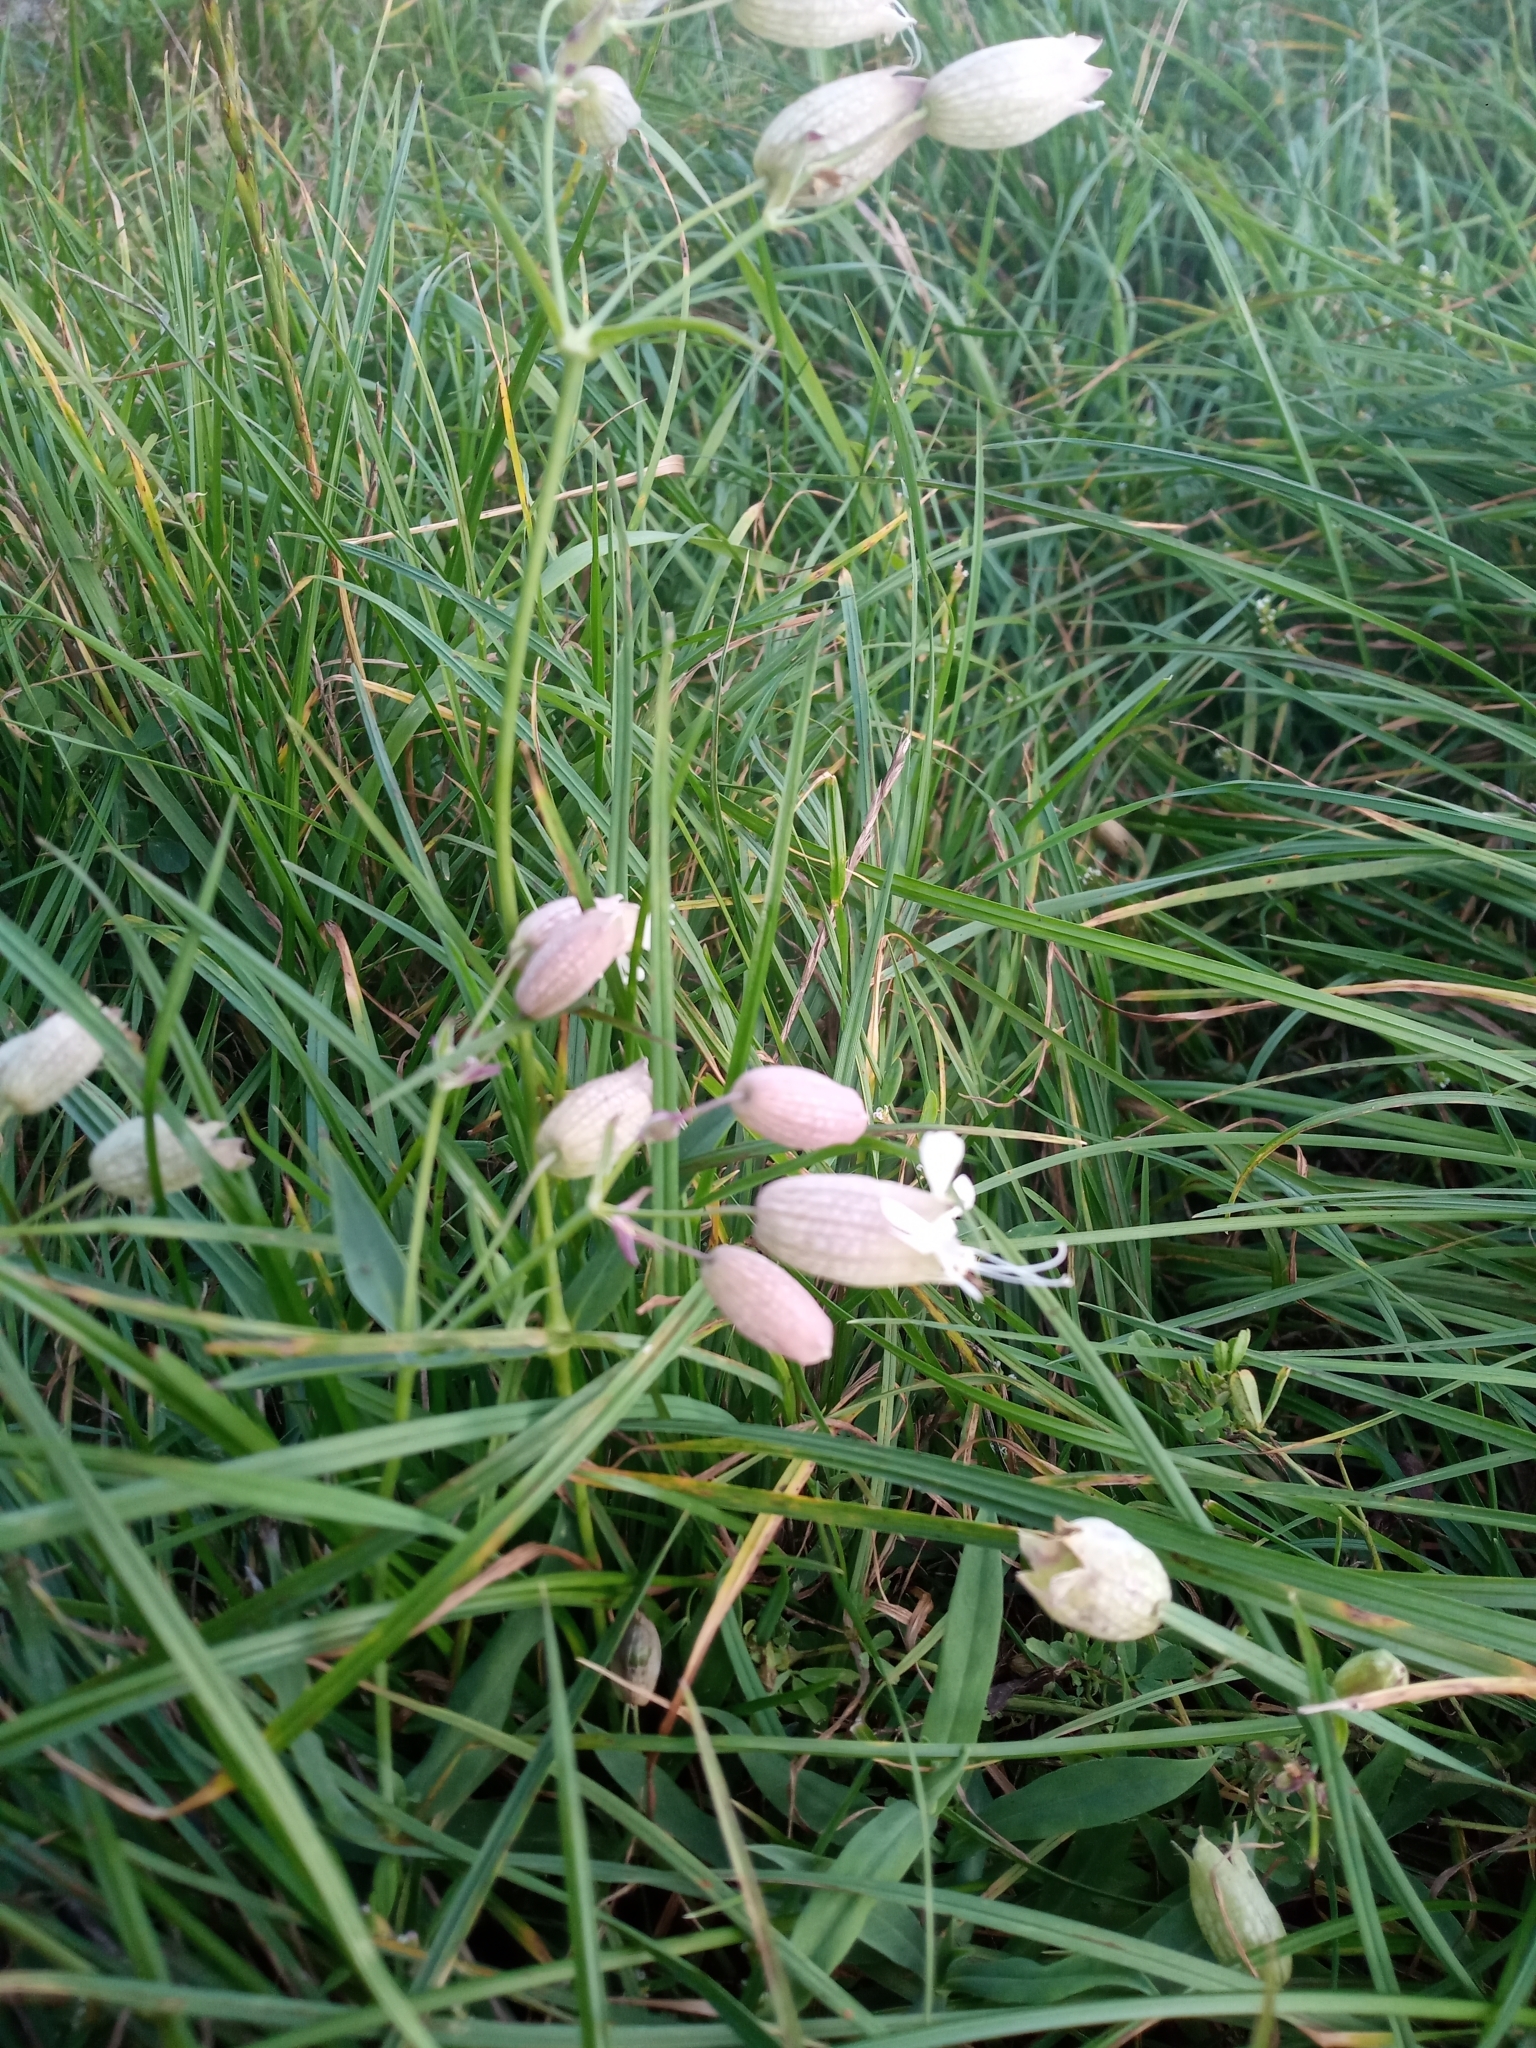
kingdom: Plantae
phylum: Tracheophyta
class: Magnoliopsida
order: Caryophyllales
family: Caryophyllaceae
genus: Silene
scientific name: Silene vulgaris
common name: Bladder campion
